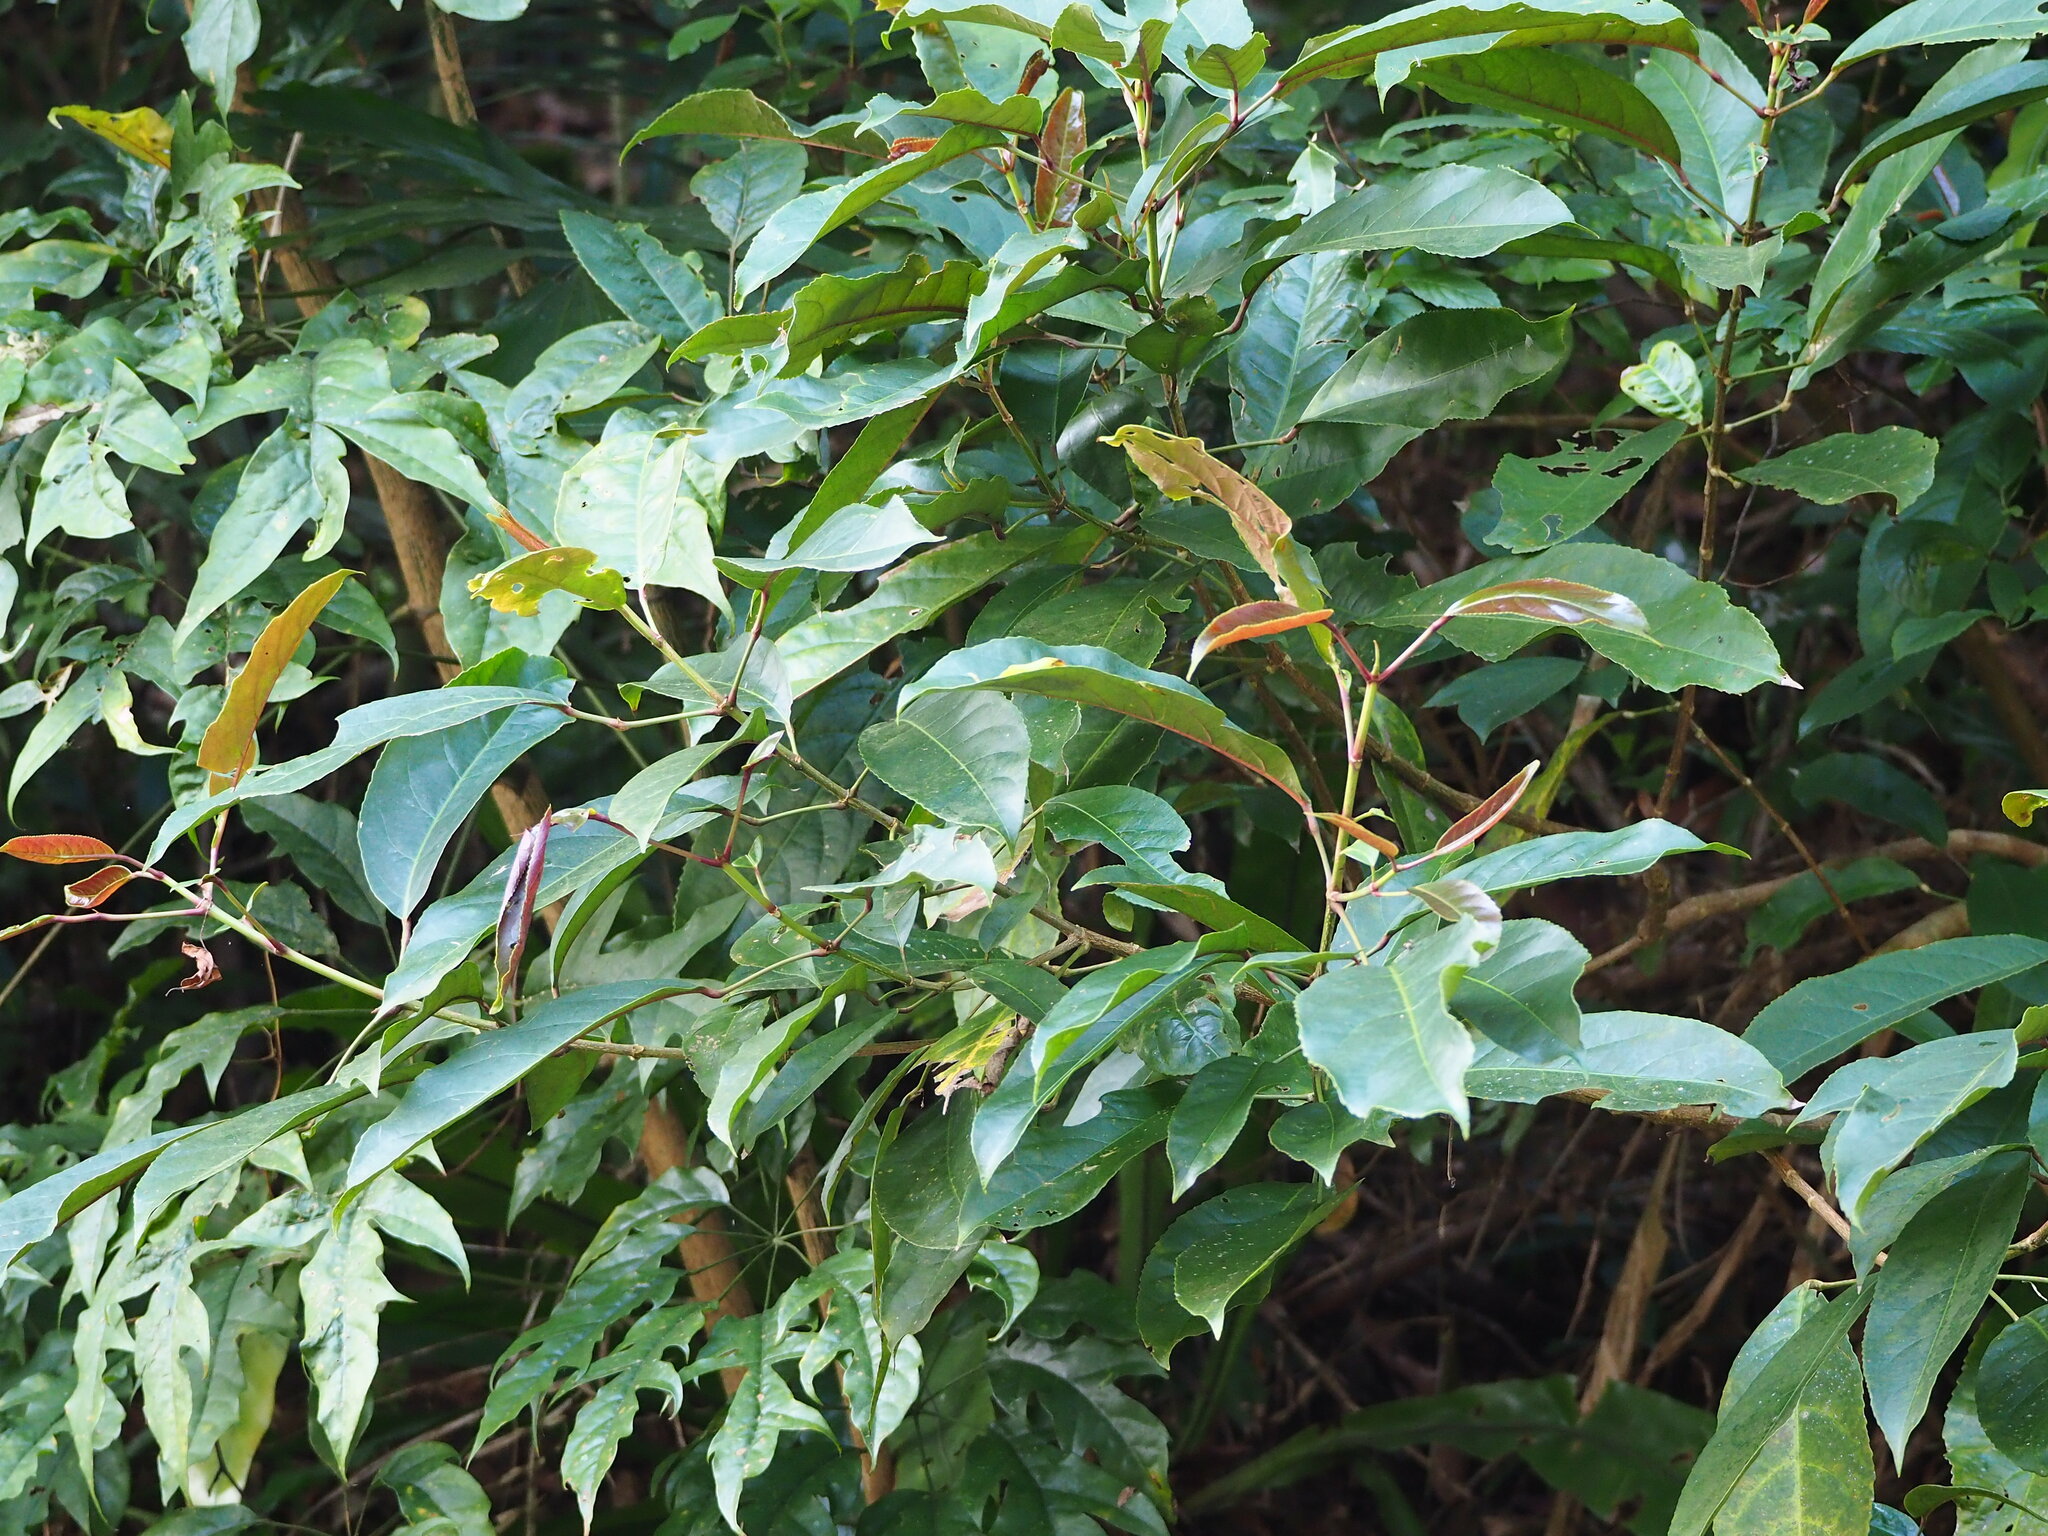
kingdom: Plantae
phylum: Tracheophyta
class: Magnoliopsida
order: Crossosomatales
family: Staphyleaceae
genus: Turpinia
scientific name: Turpinia ternata
